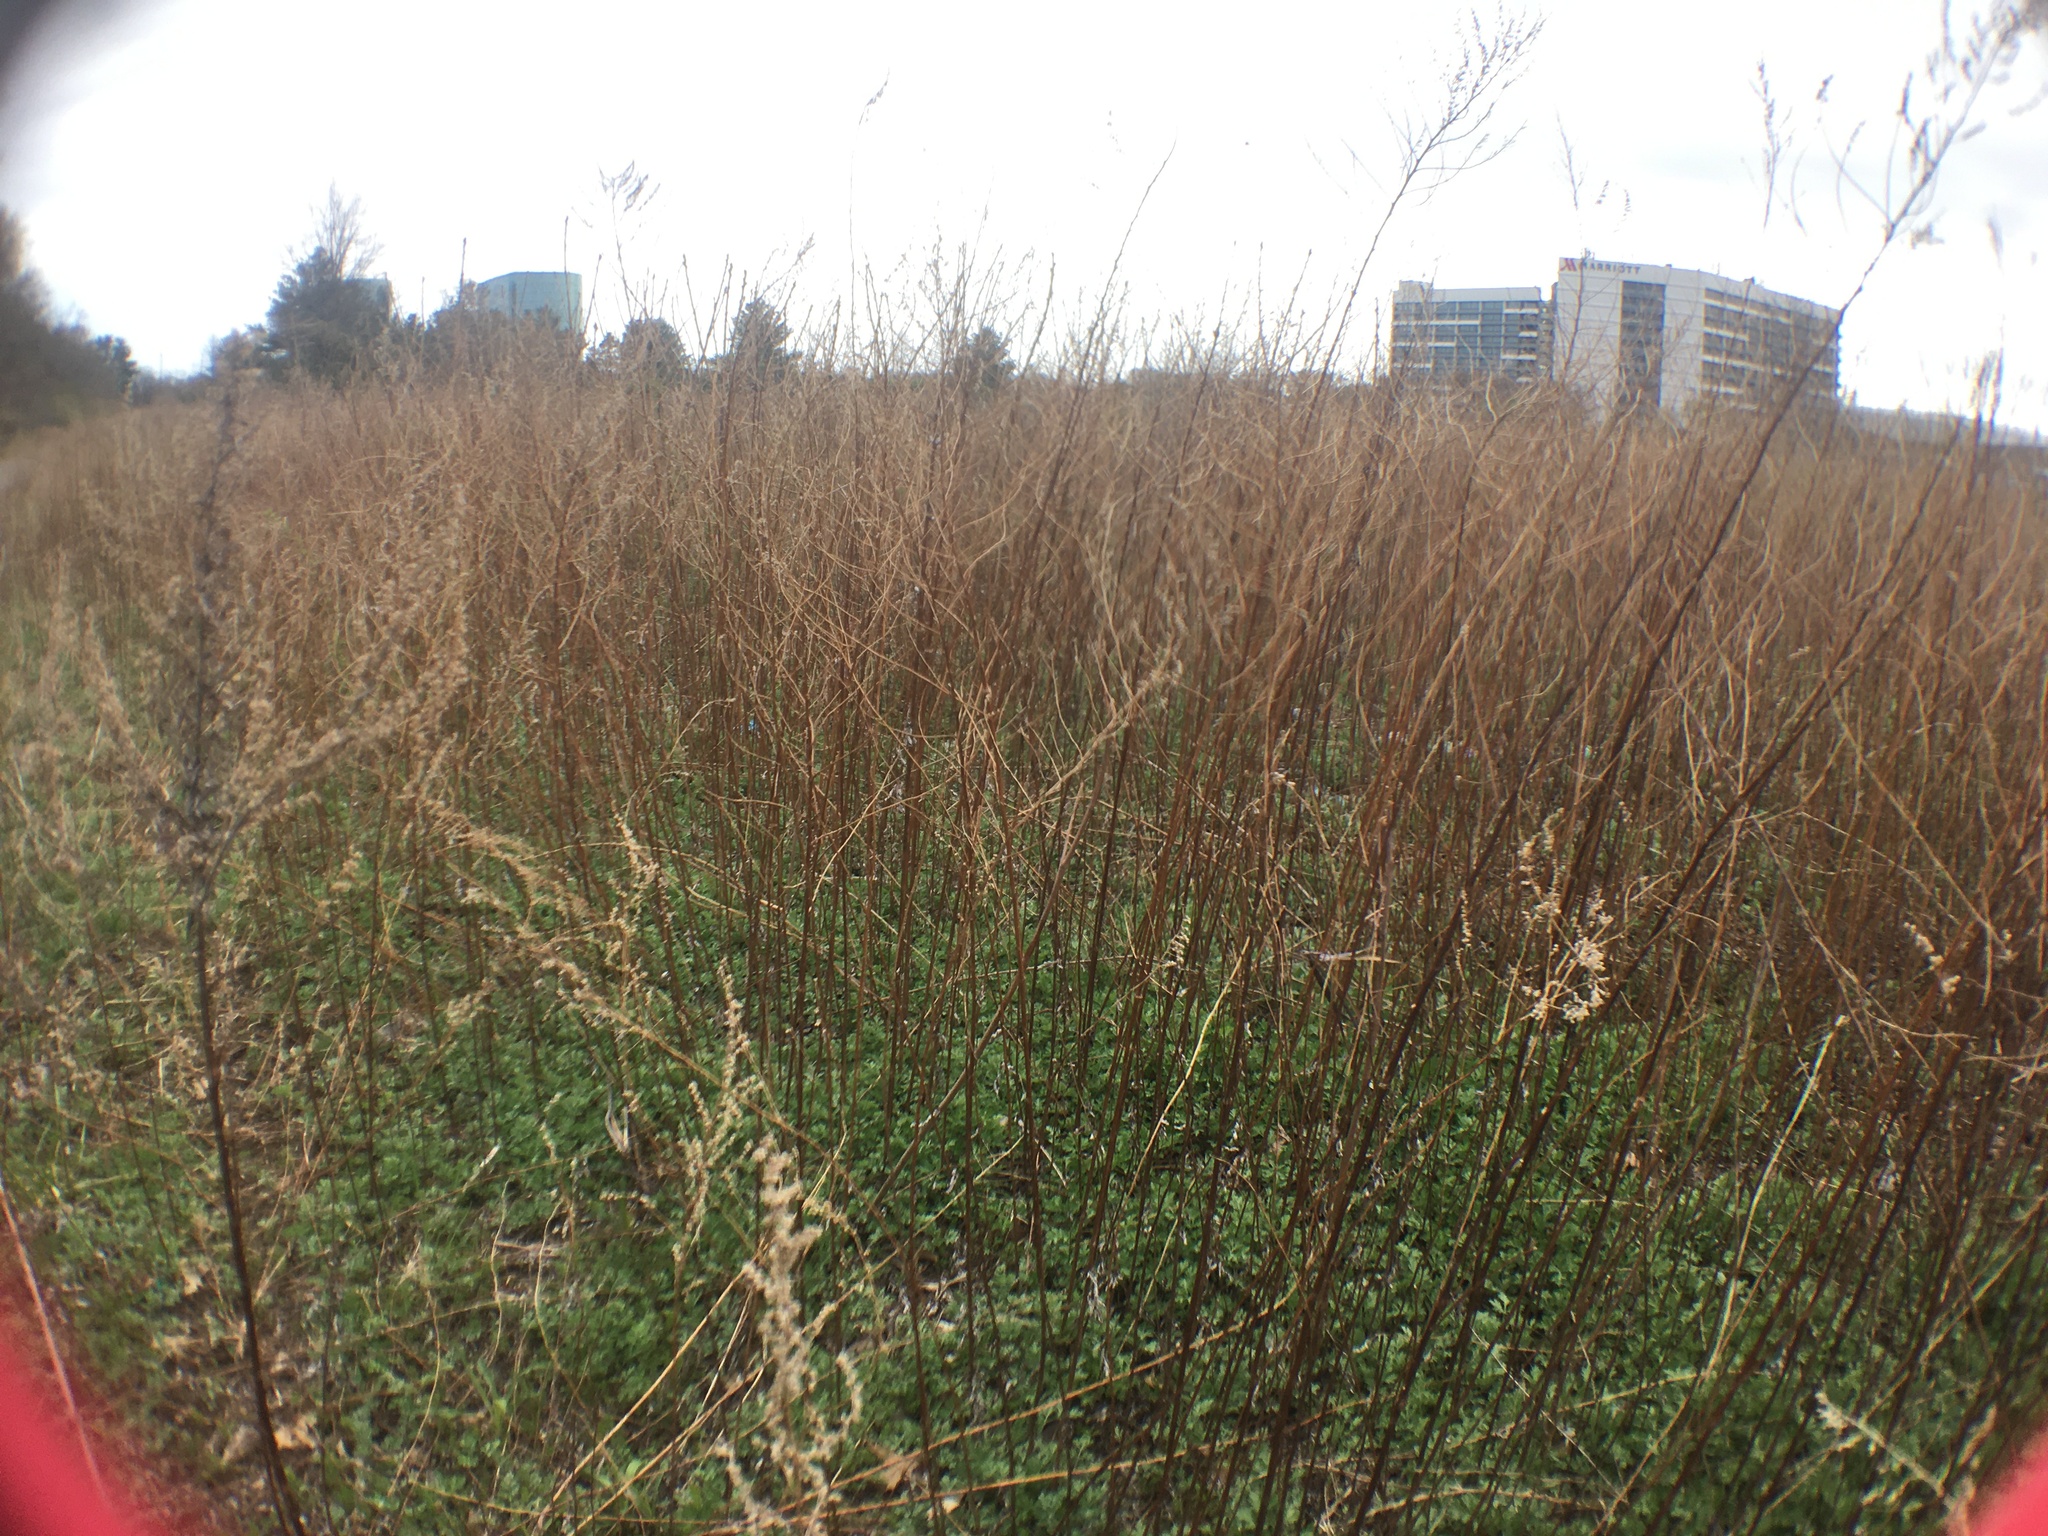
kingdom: Plantae
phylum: Tracheophyta
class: Magnoliopsida
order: Asterales
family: Asteraceae
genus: Artemisia
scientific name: Artemisia vulgaris
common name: Mugwort
